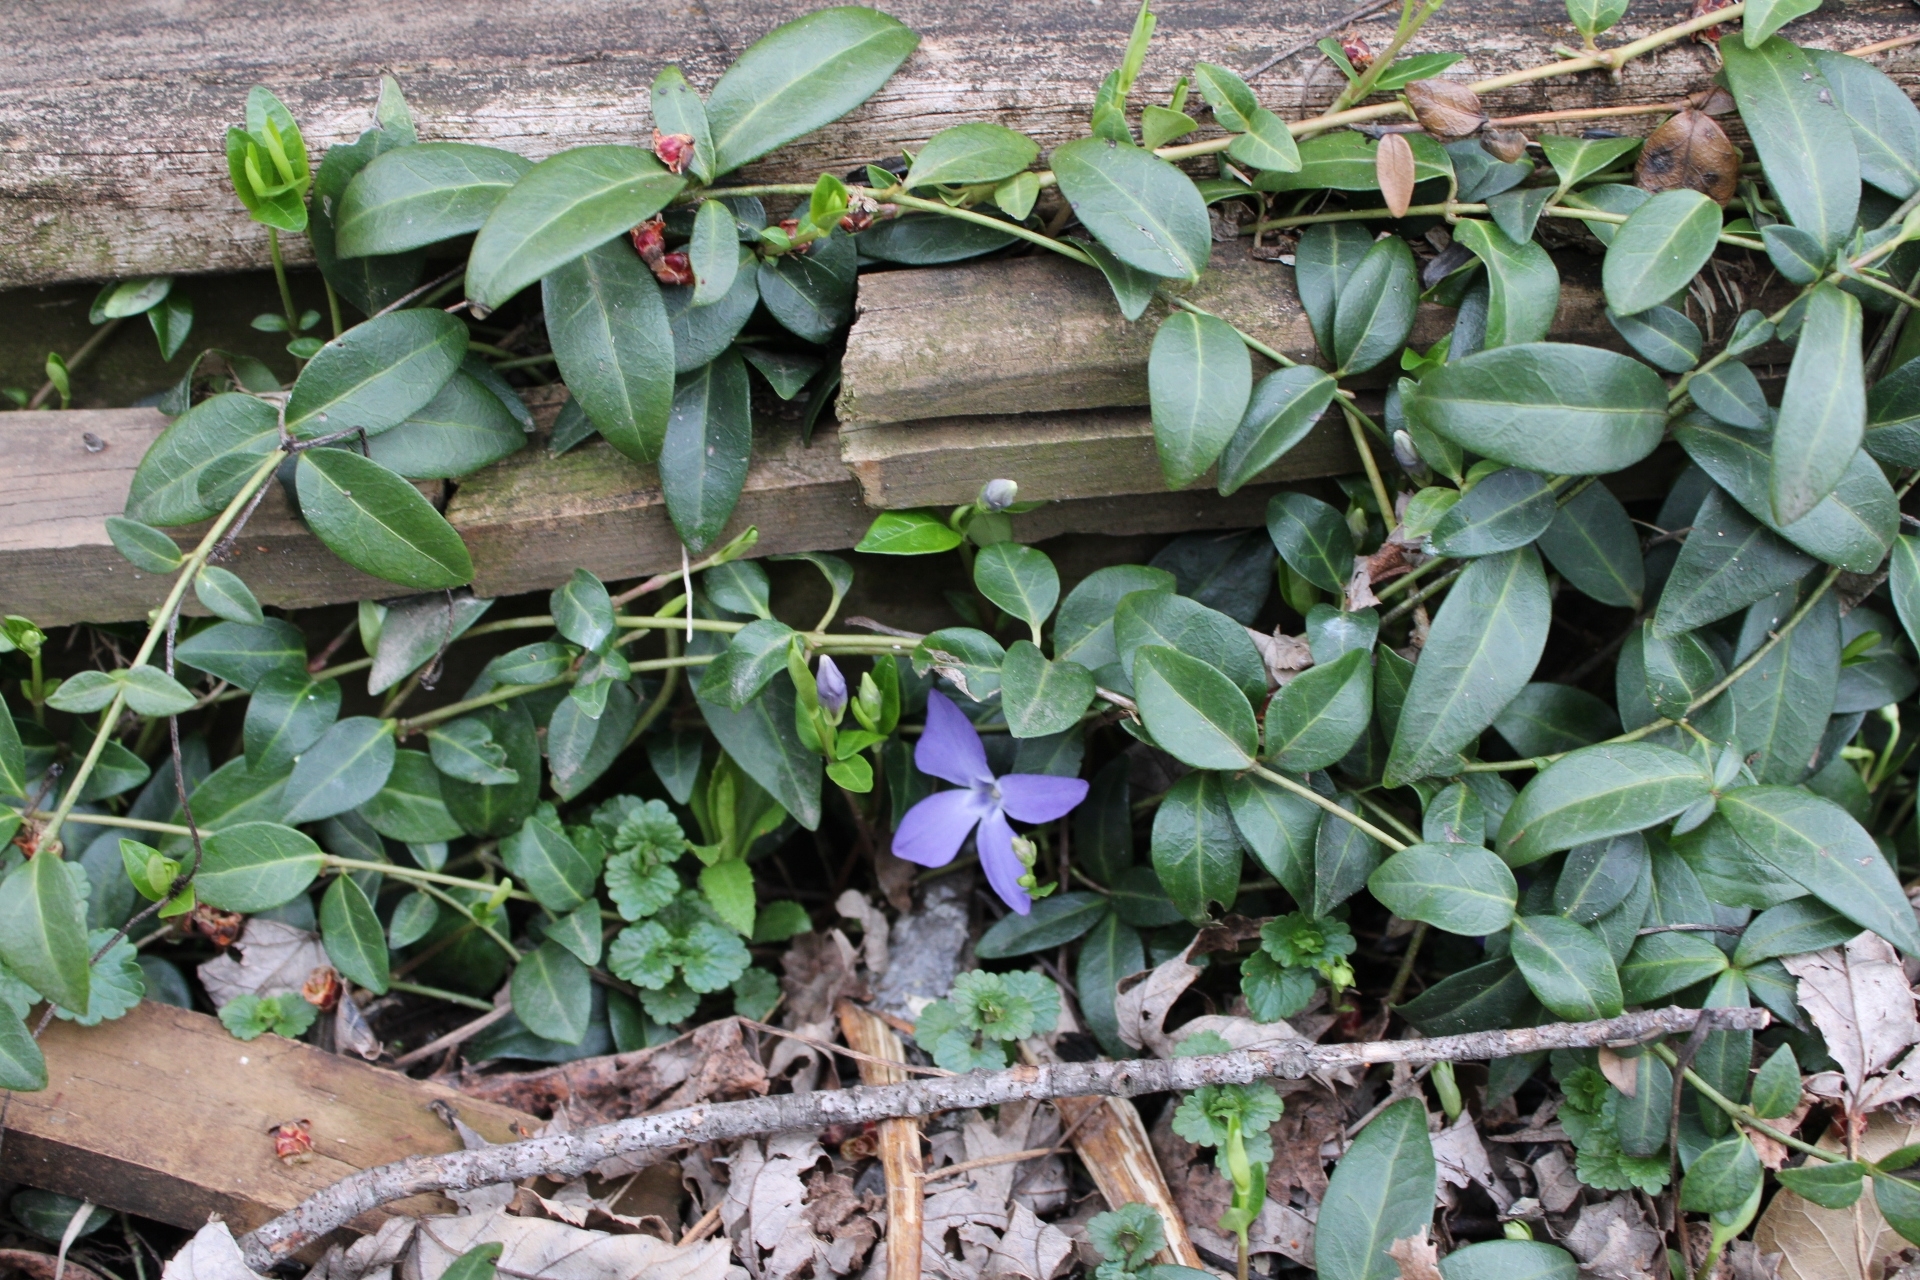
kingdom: Plantae
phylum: Tracheophyta
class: Magnoliopsida
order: Gentianales
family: Apocynaceae
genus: Vinca
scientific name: Vinca minor
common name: Lesser periwinkle
